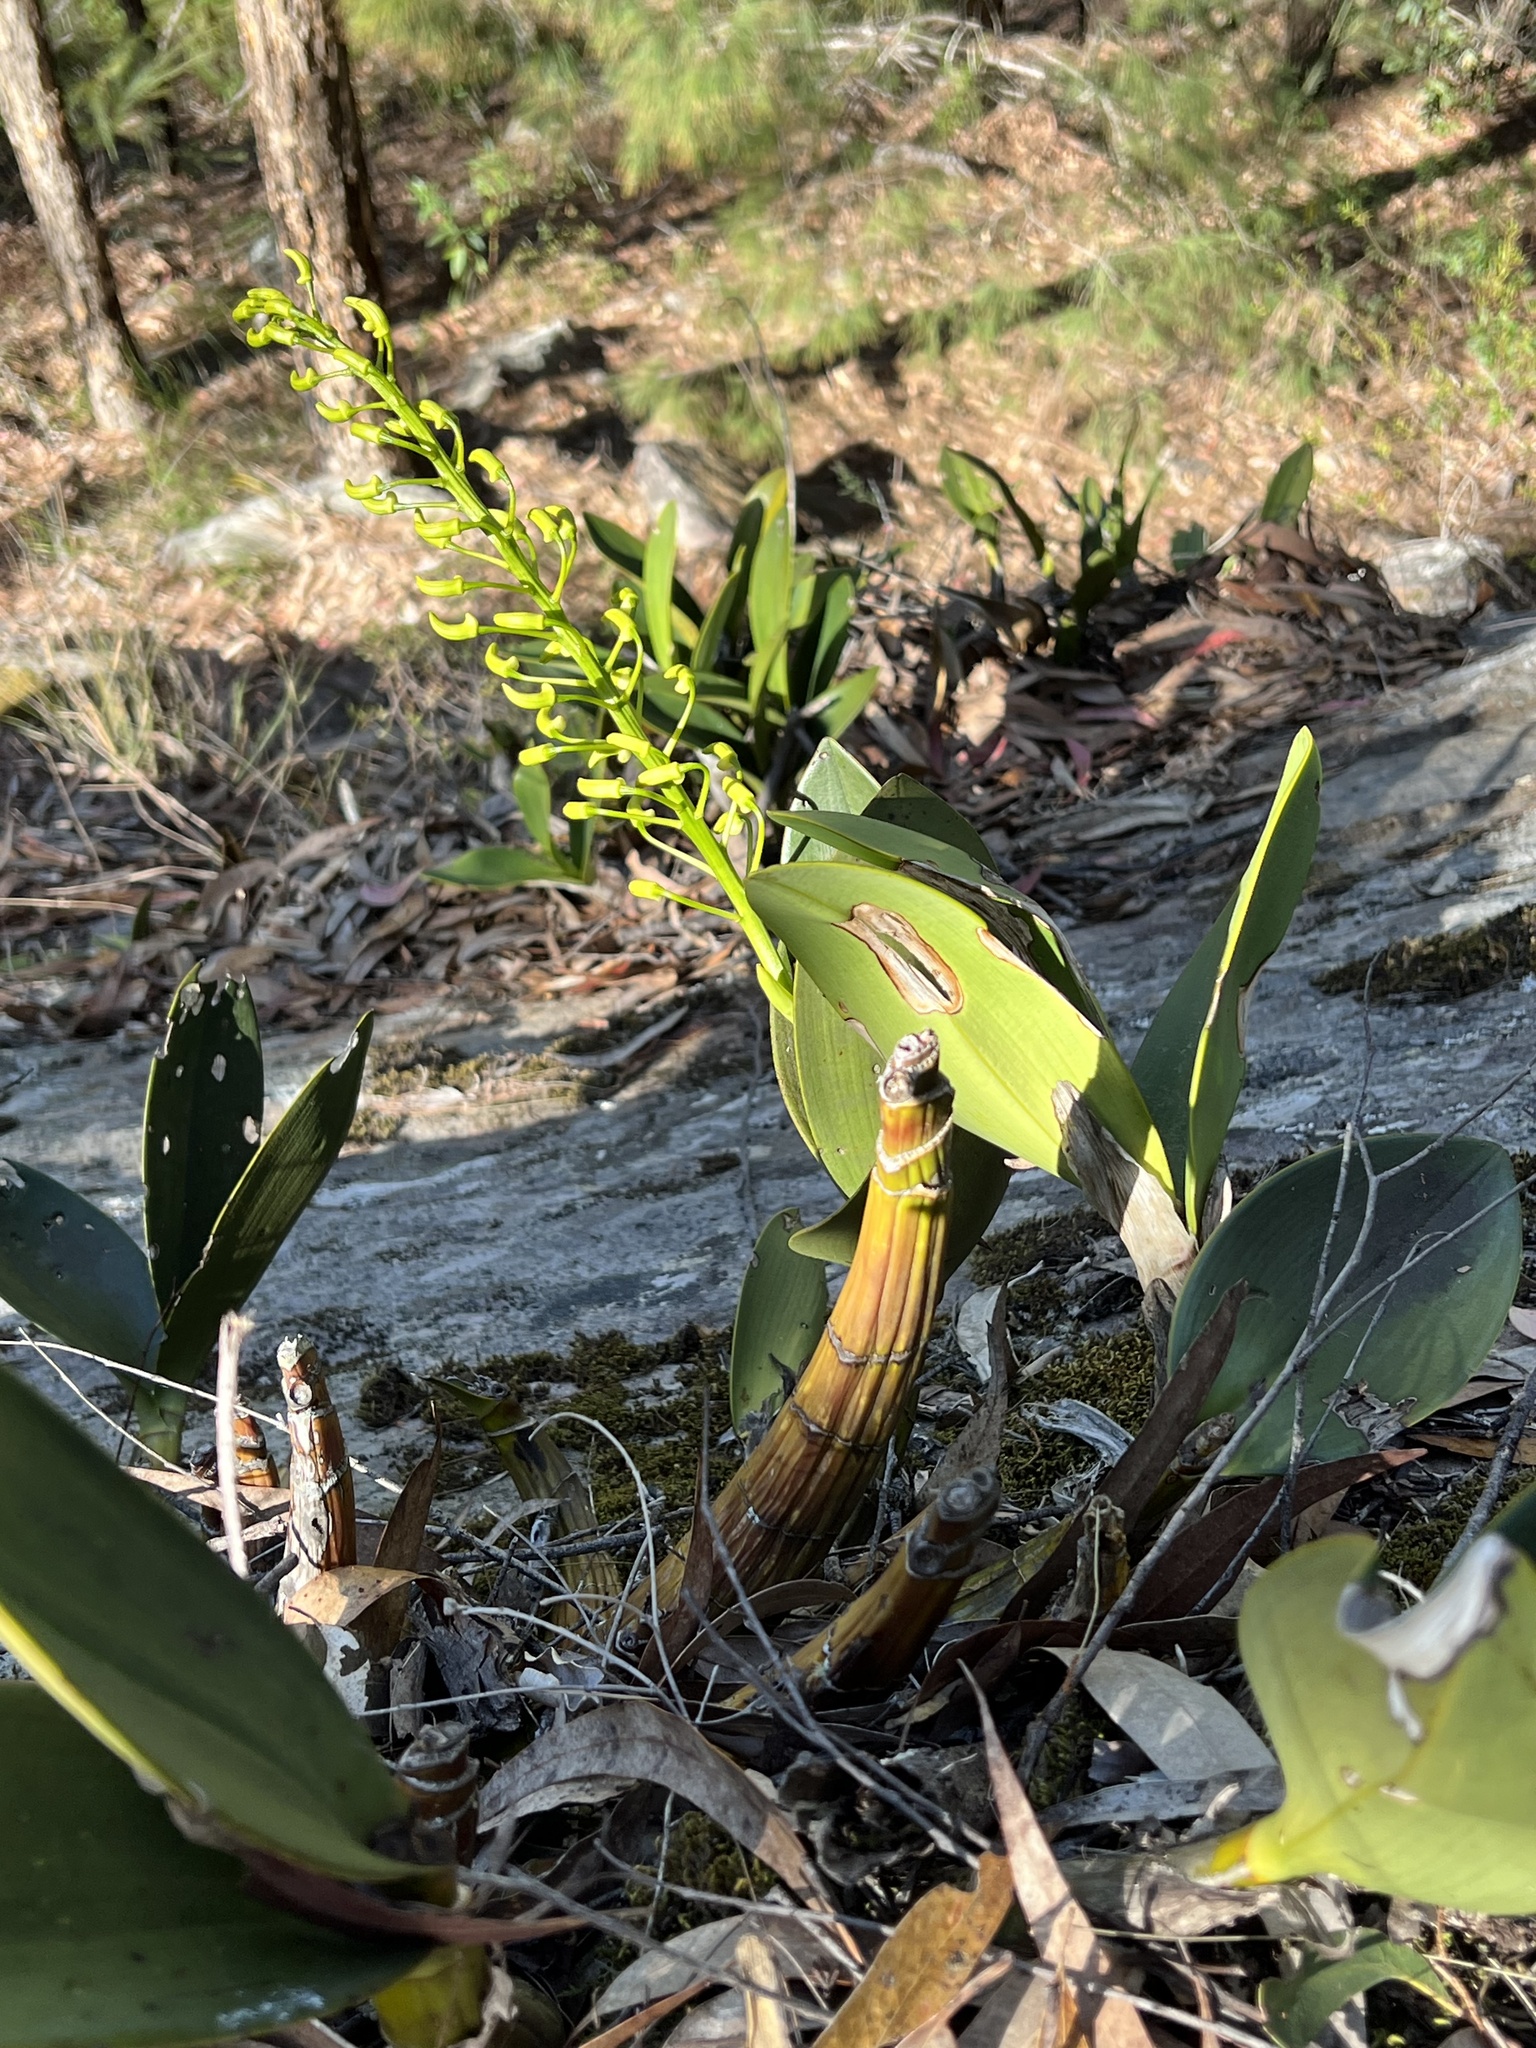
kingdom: Plantae
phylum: Tracheophyta
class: Liliopsida
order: Asparagales
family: Orchidaceae
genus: Dendrobium
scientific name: Dendrobium speciosum
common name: Rock-lily
